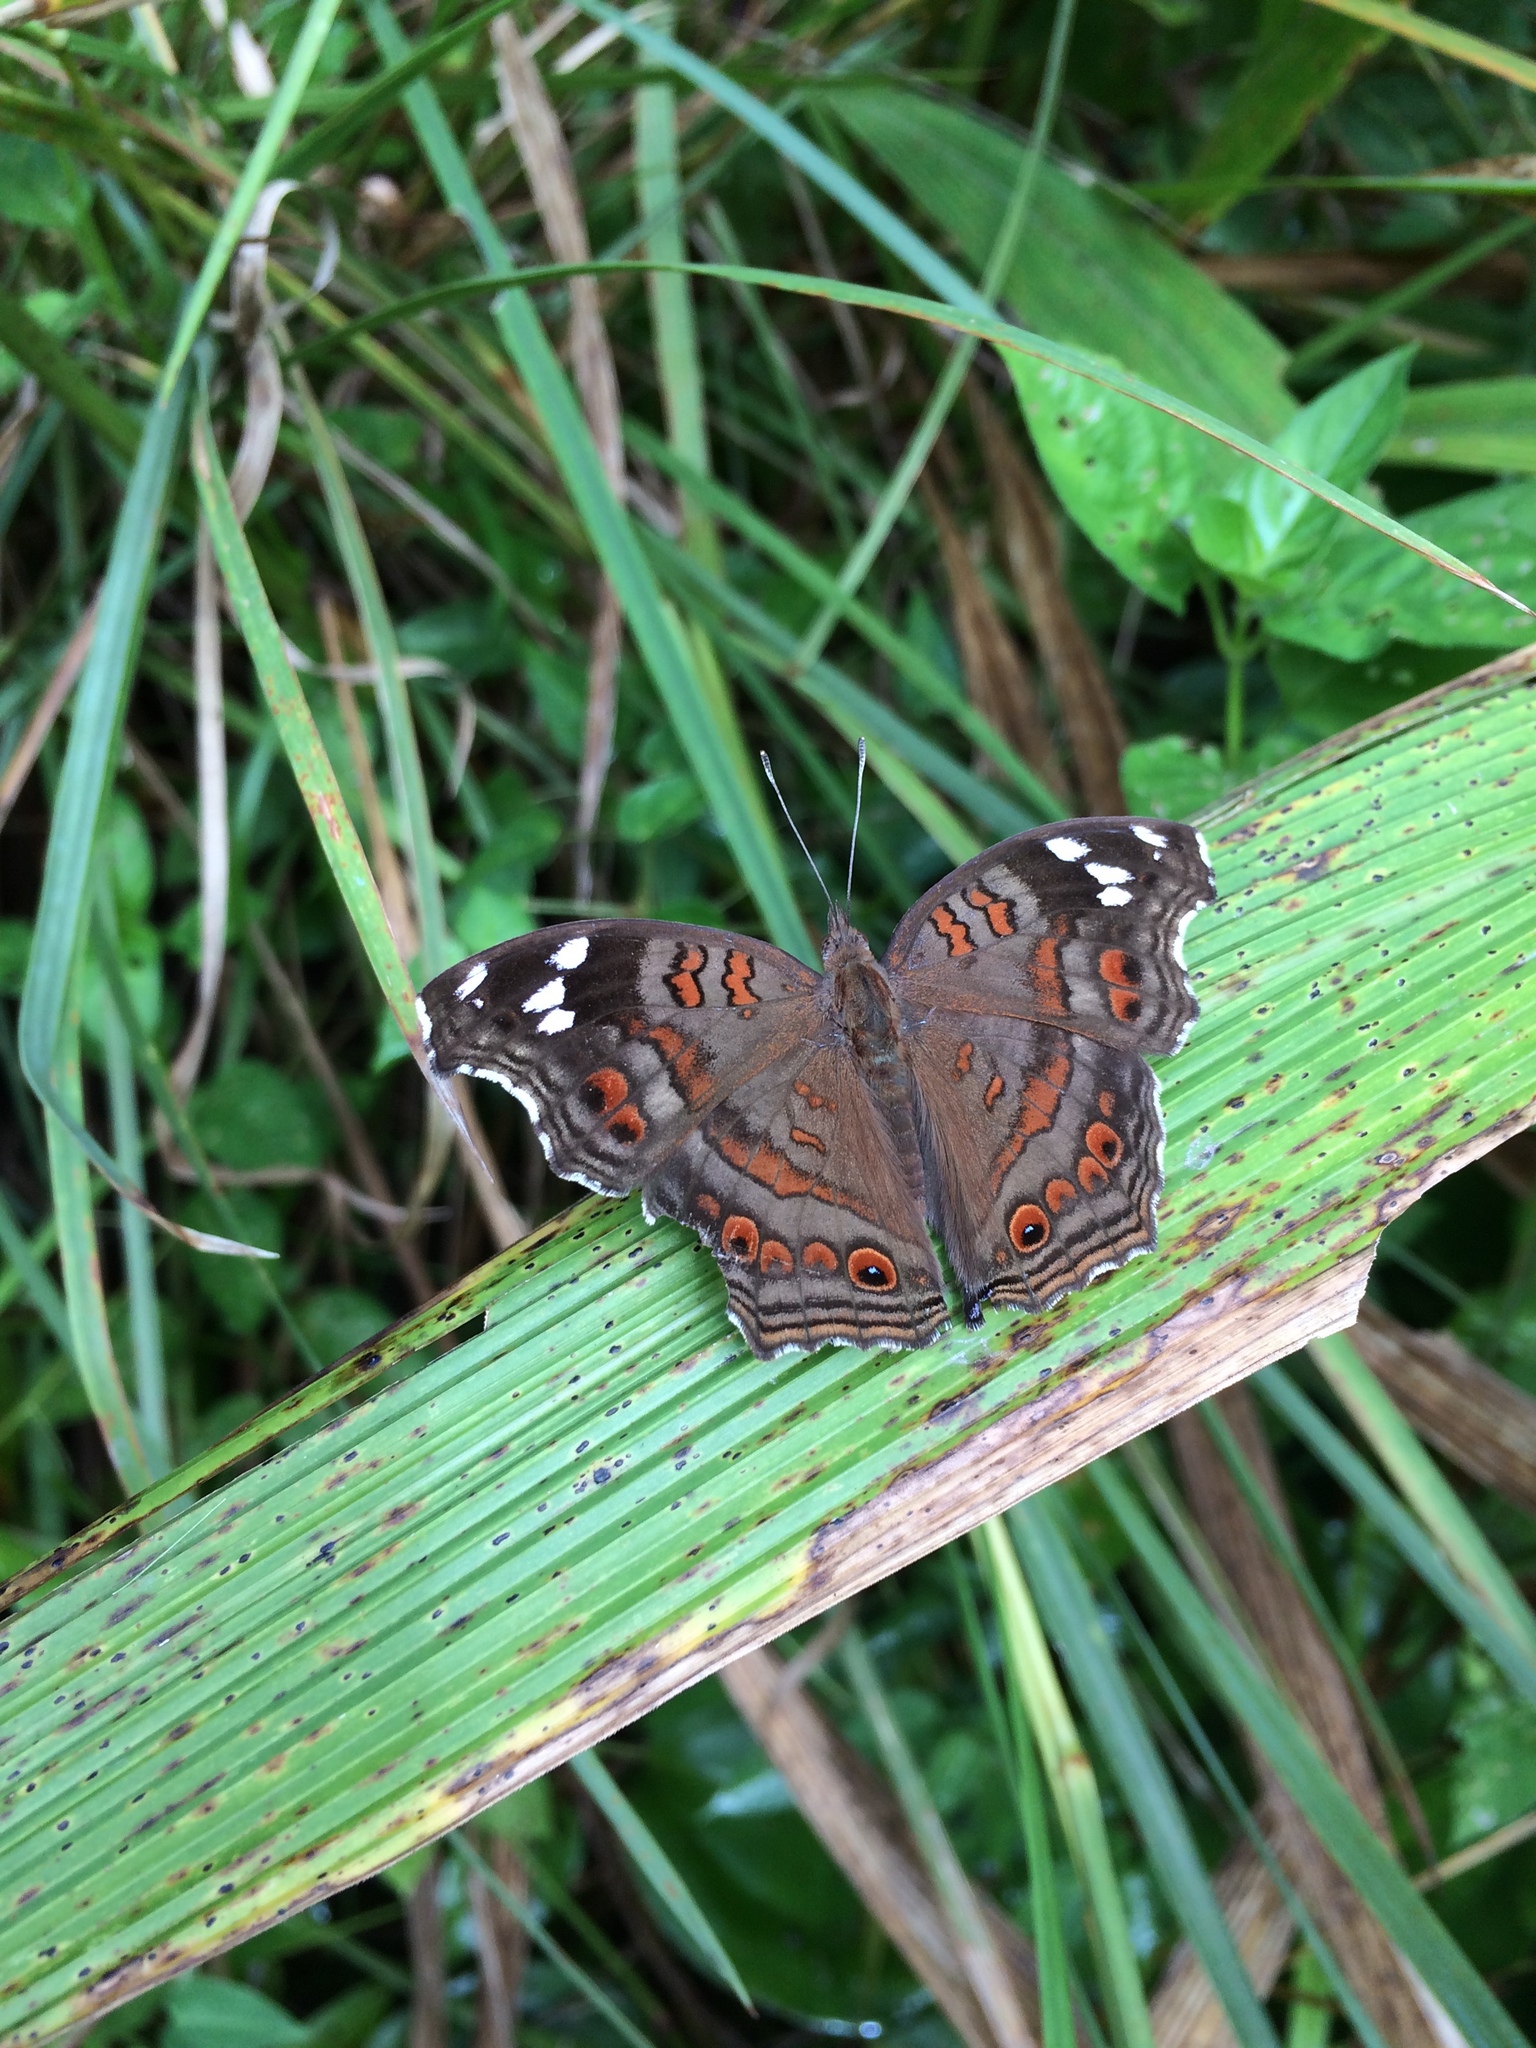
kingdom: Animalia
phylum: Arthropoda
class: Insecta
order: Lepidoptera
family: Nymphalidae
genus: Junonia
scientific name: Junonia natalica
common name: Brown pansy
